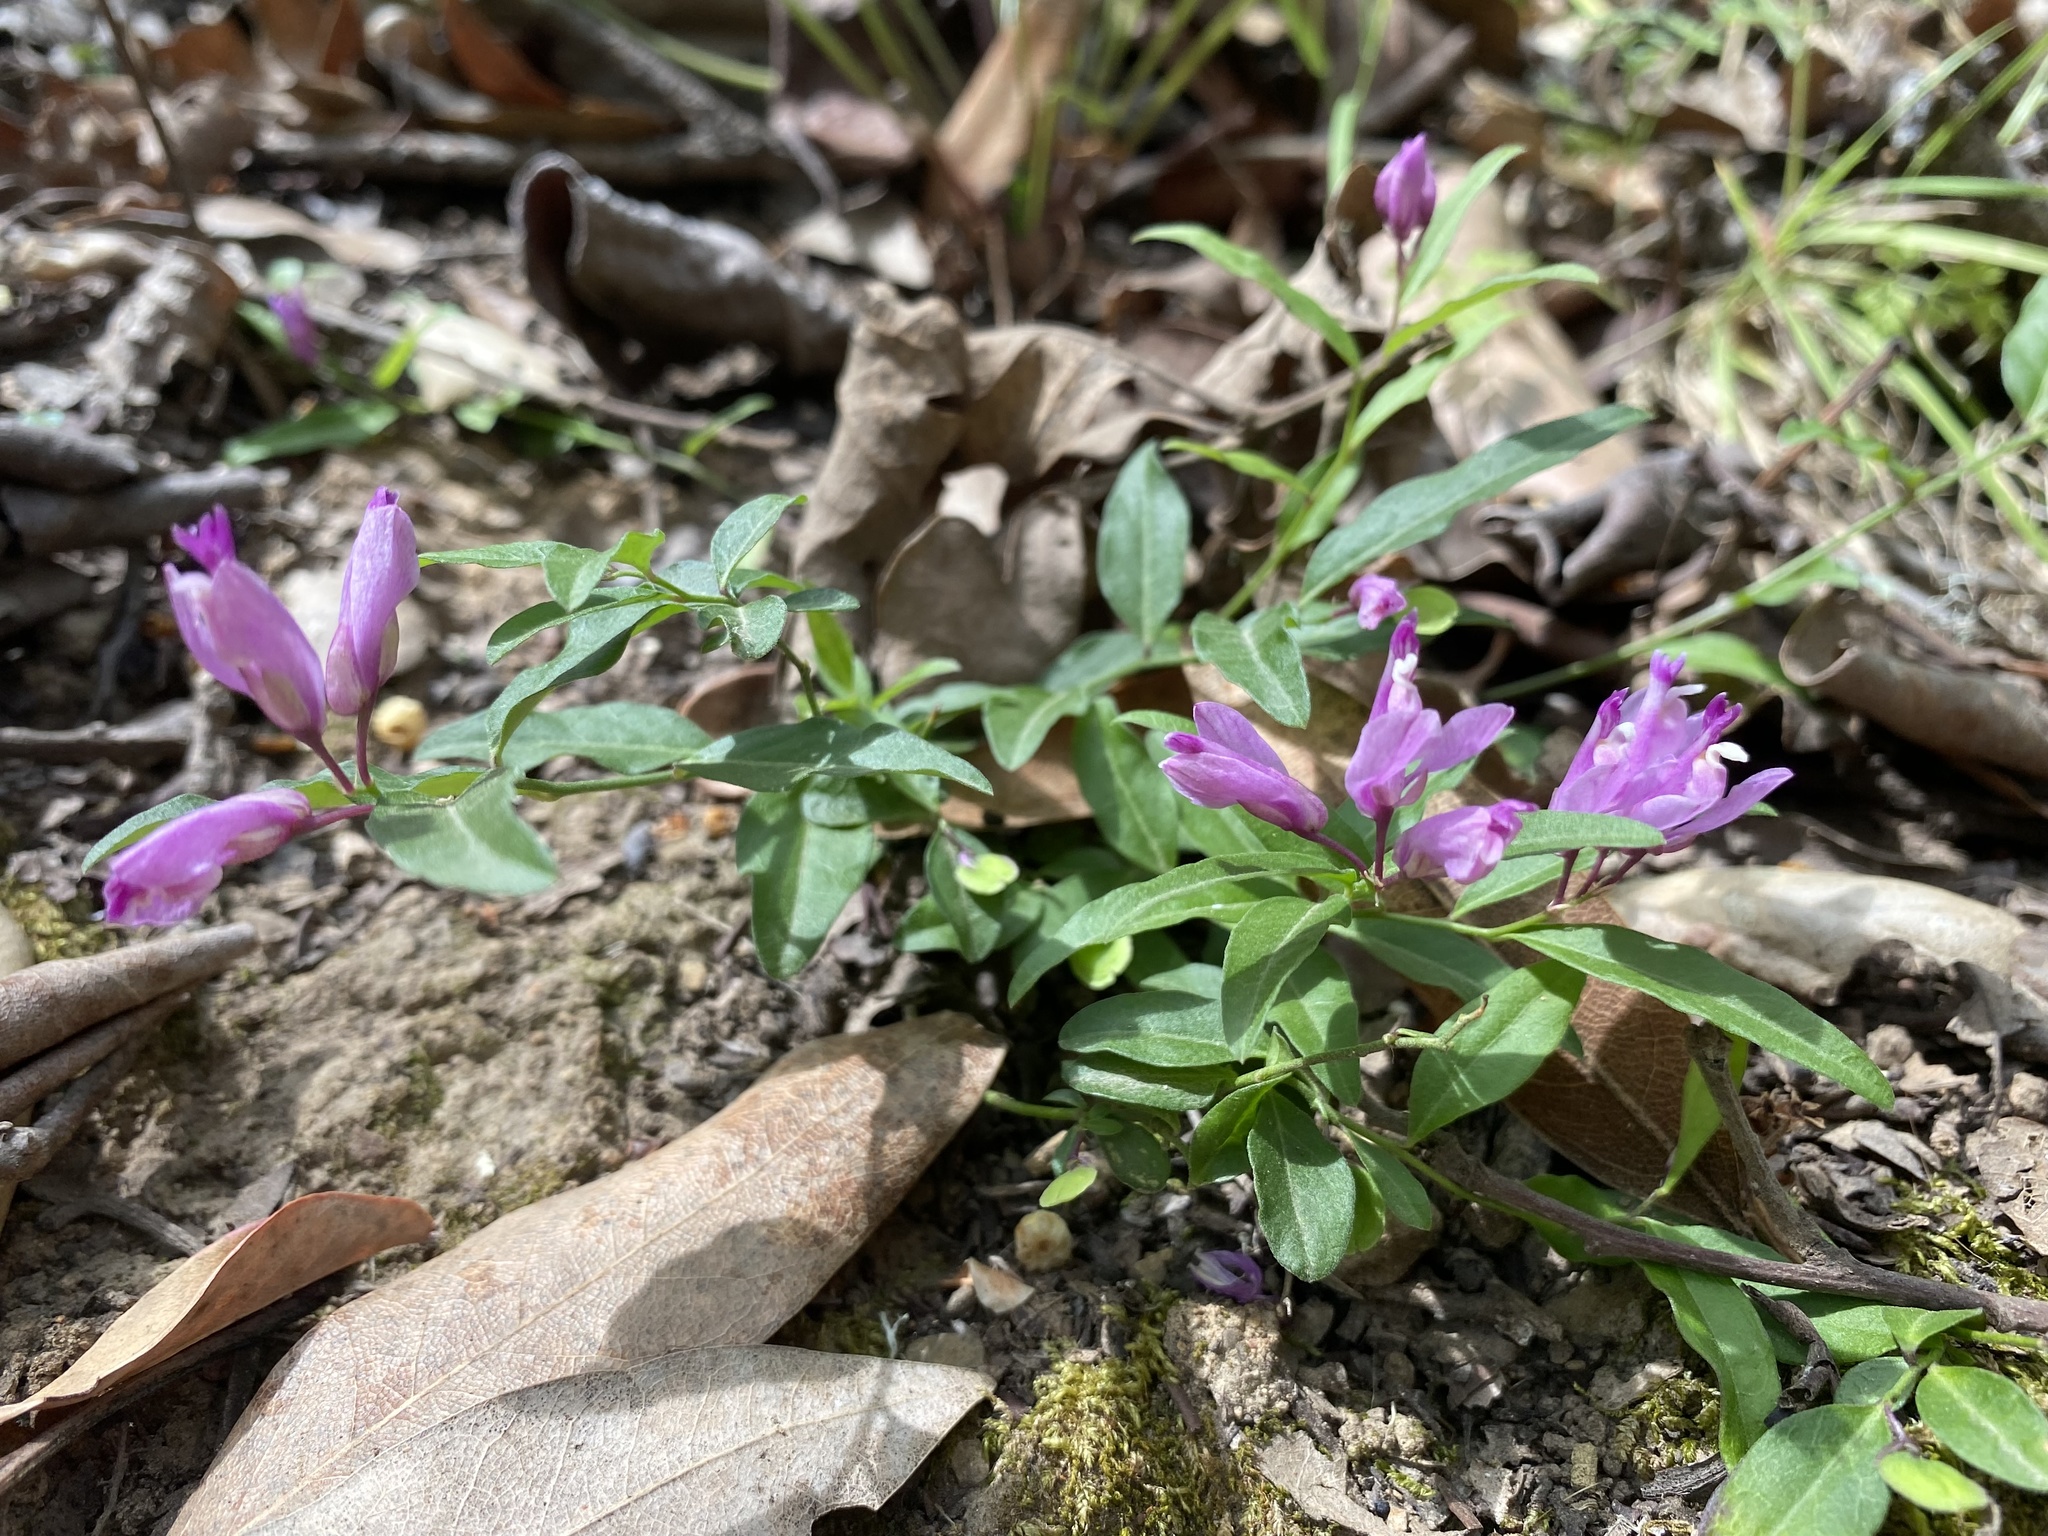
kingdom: Plantae
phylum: Tracheophyta
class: Magnoliopsida
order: Fabales
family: Polygalaceae
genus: Rhinotropis
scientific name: Rhinotropis californica
